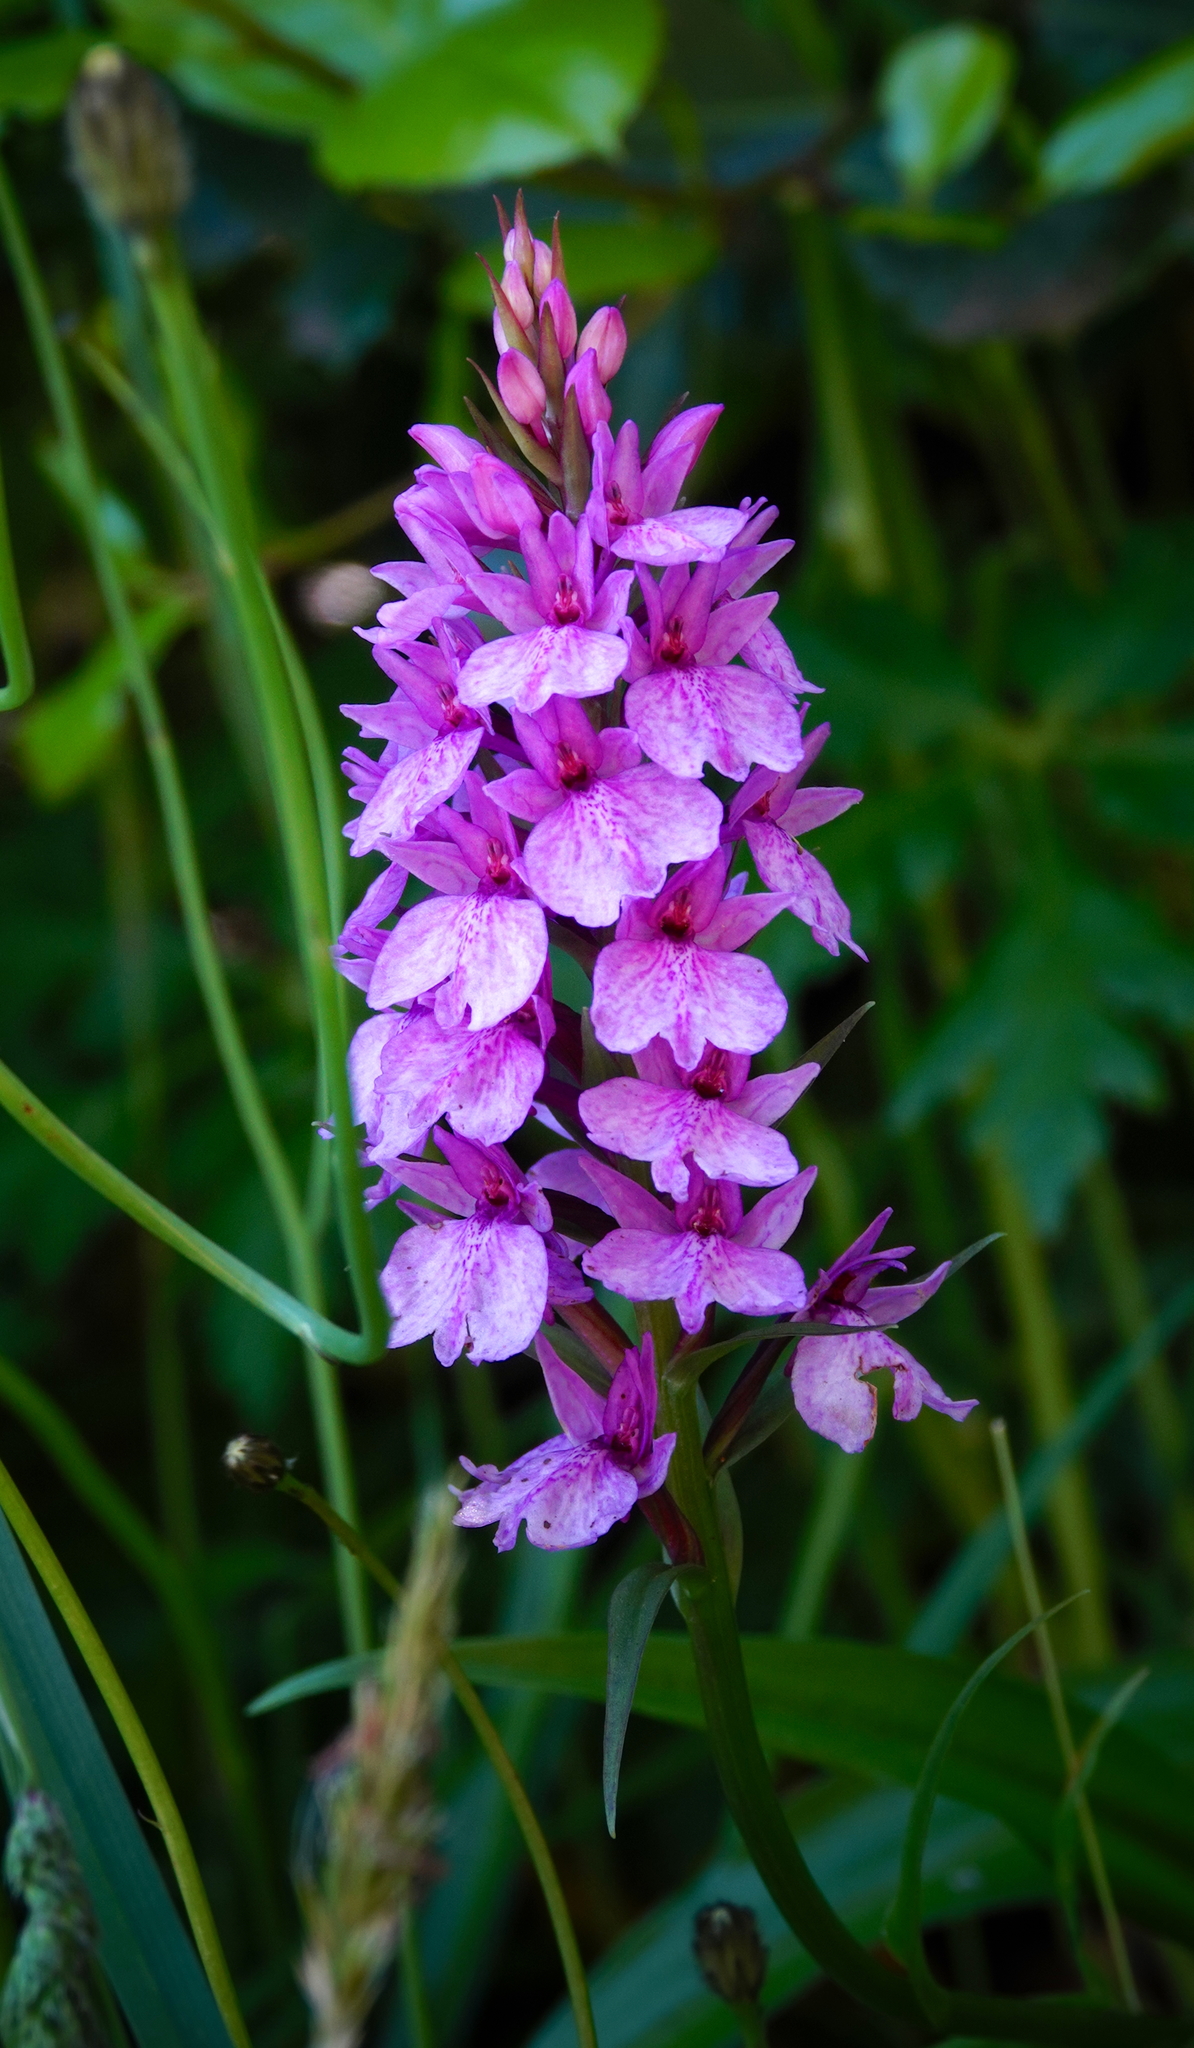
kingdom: Plantae
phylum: Tracheophyta
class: Liliopsida
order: Asparagales
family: Orchidaceae
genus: Dactylorhiza
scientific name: Dactylorhiza foliosa
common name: Richly-leaved dactylorhiza
